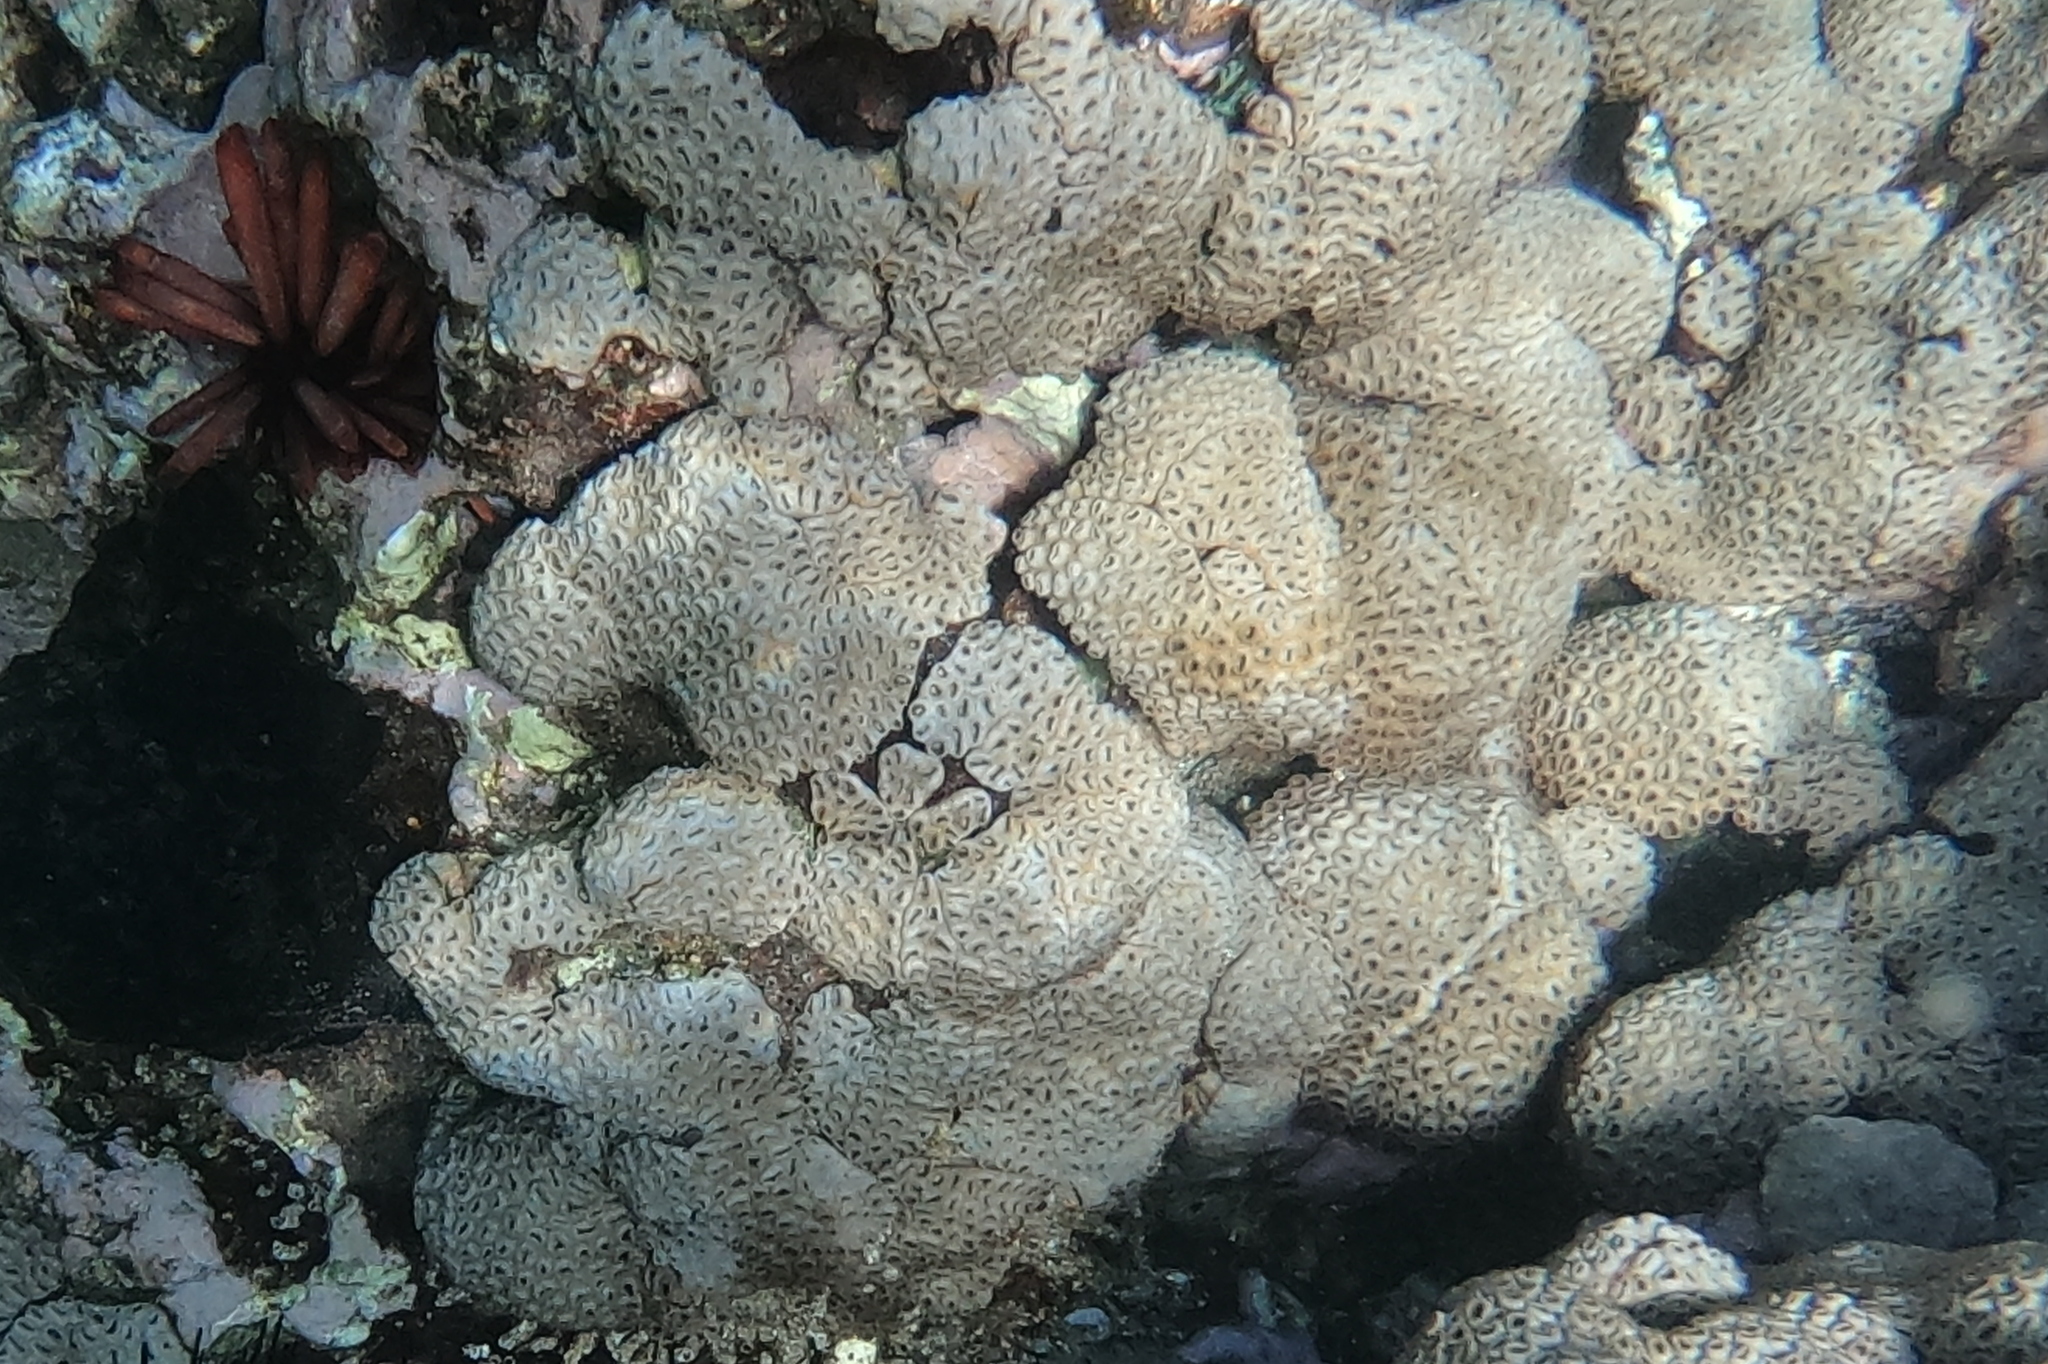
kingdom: Animalia
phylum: Cnidaria
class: Anthozoa
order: Zoantharia
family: Sphenopidae
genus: Palythoa
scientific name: Palythoa tuberculosa
